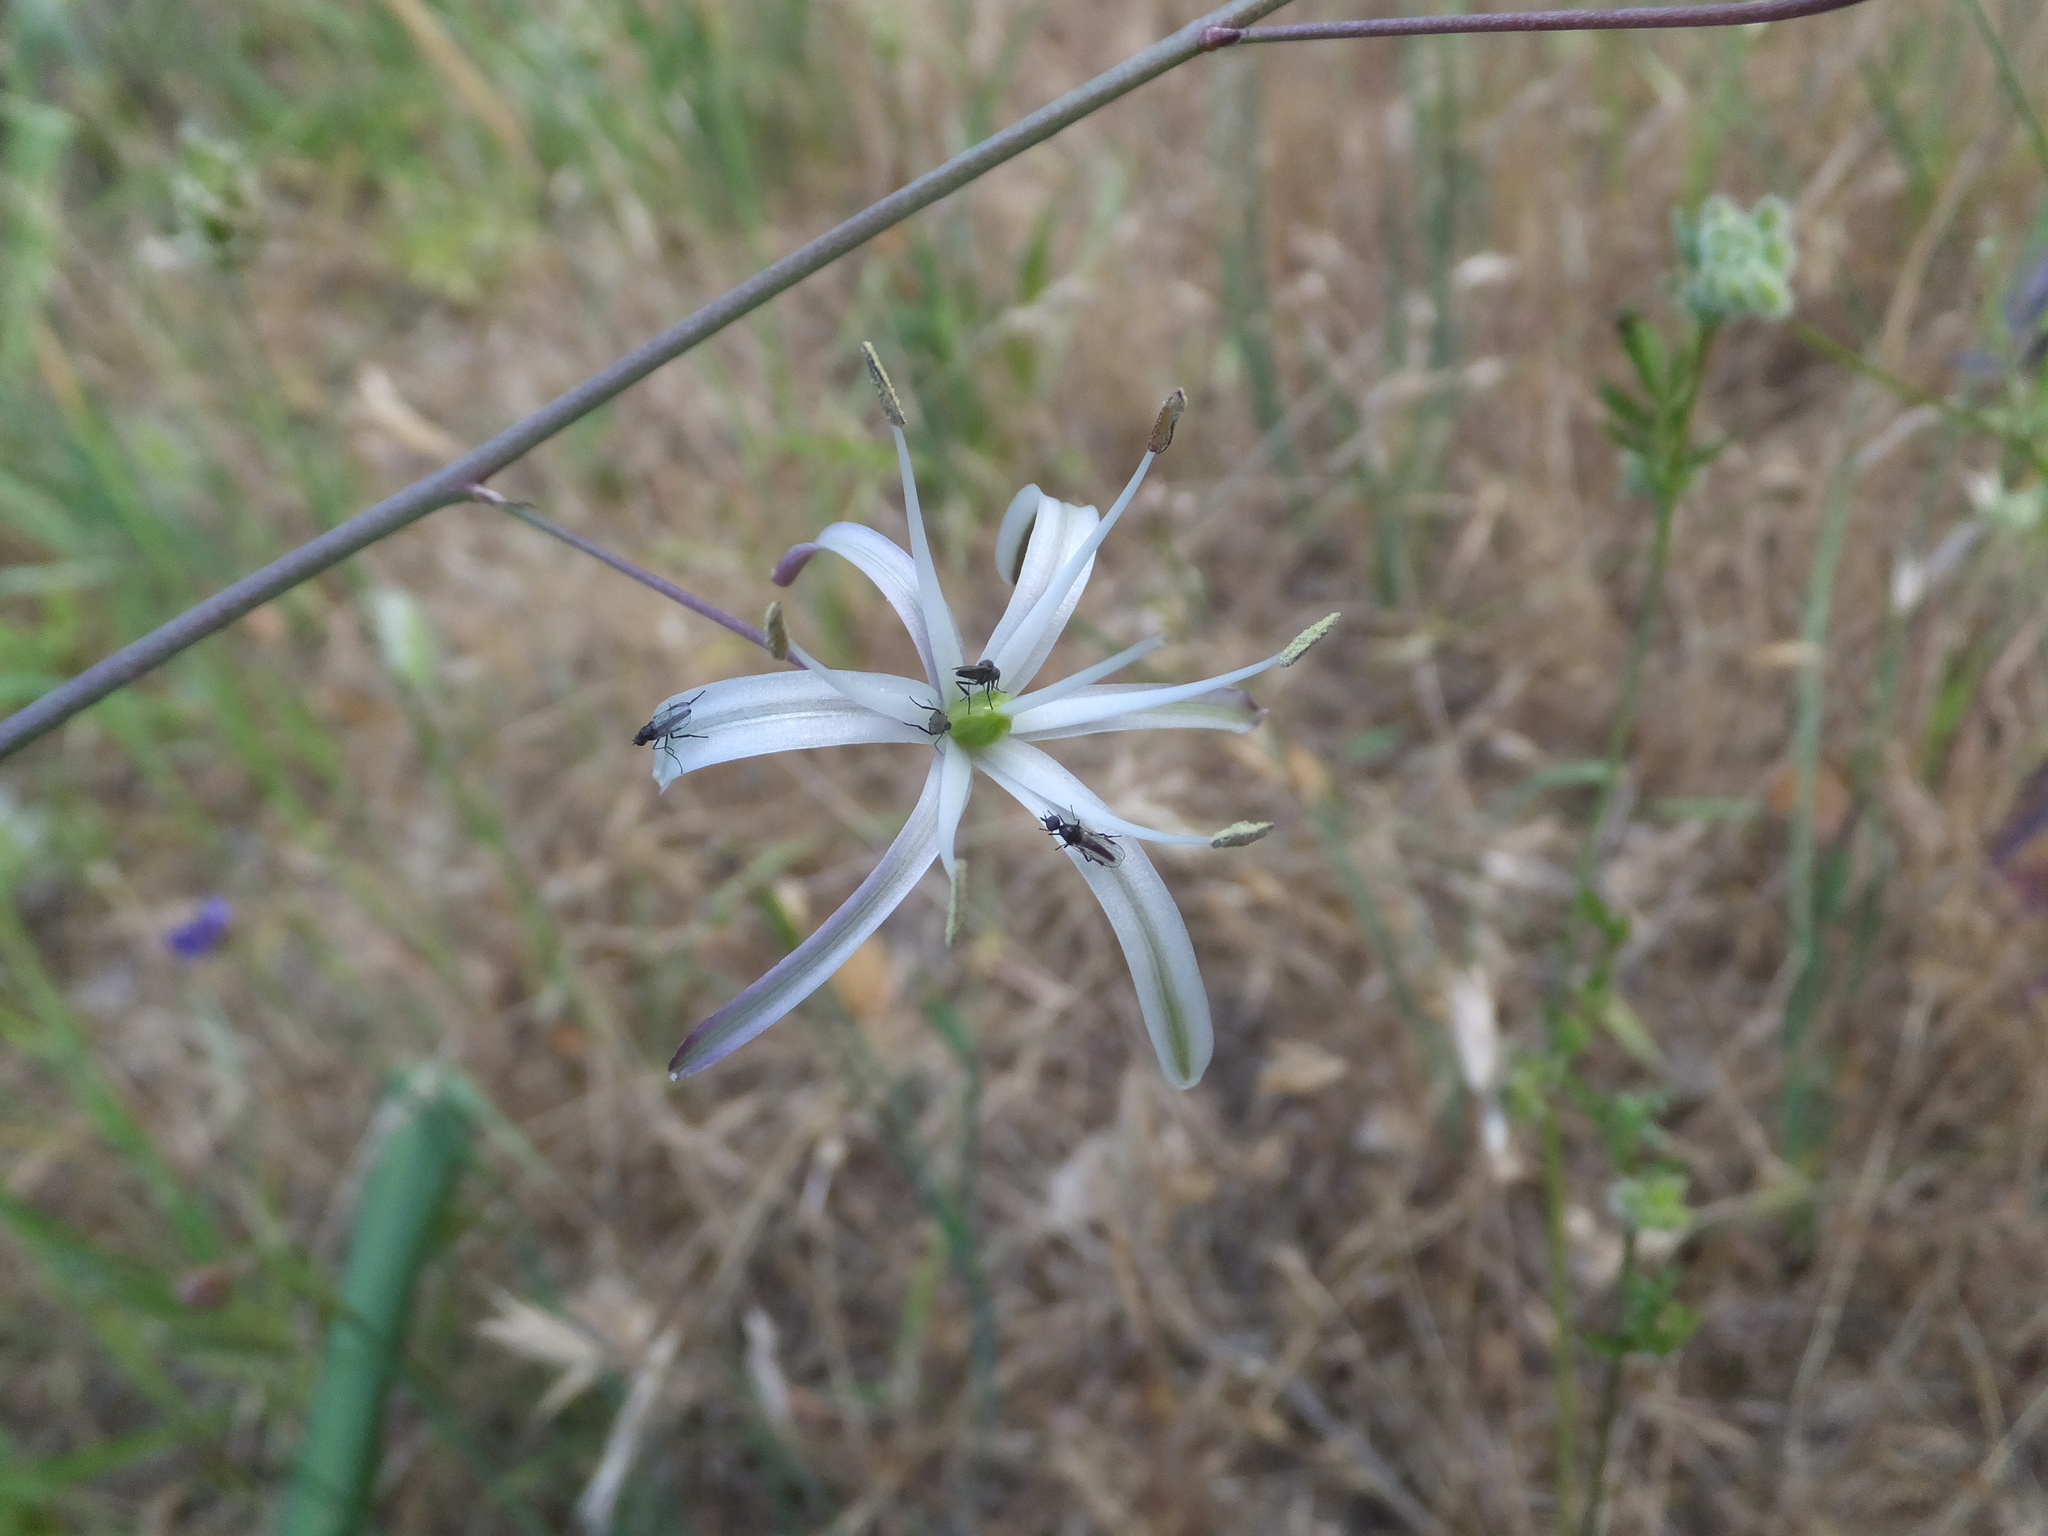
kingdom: Plantae
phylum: Tracheophyta
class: Liliopsida
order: Asparagales
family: Asparagaceae
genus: Chlorogalum
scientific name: Chlorogalum pomeridianum
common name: Amole
